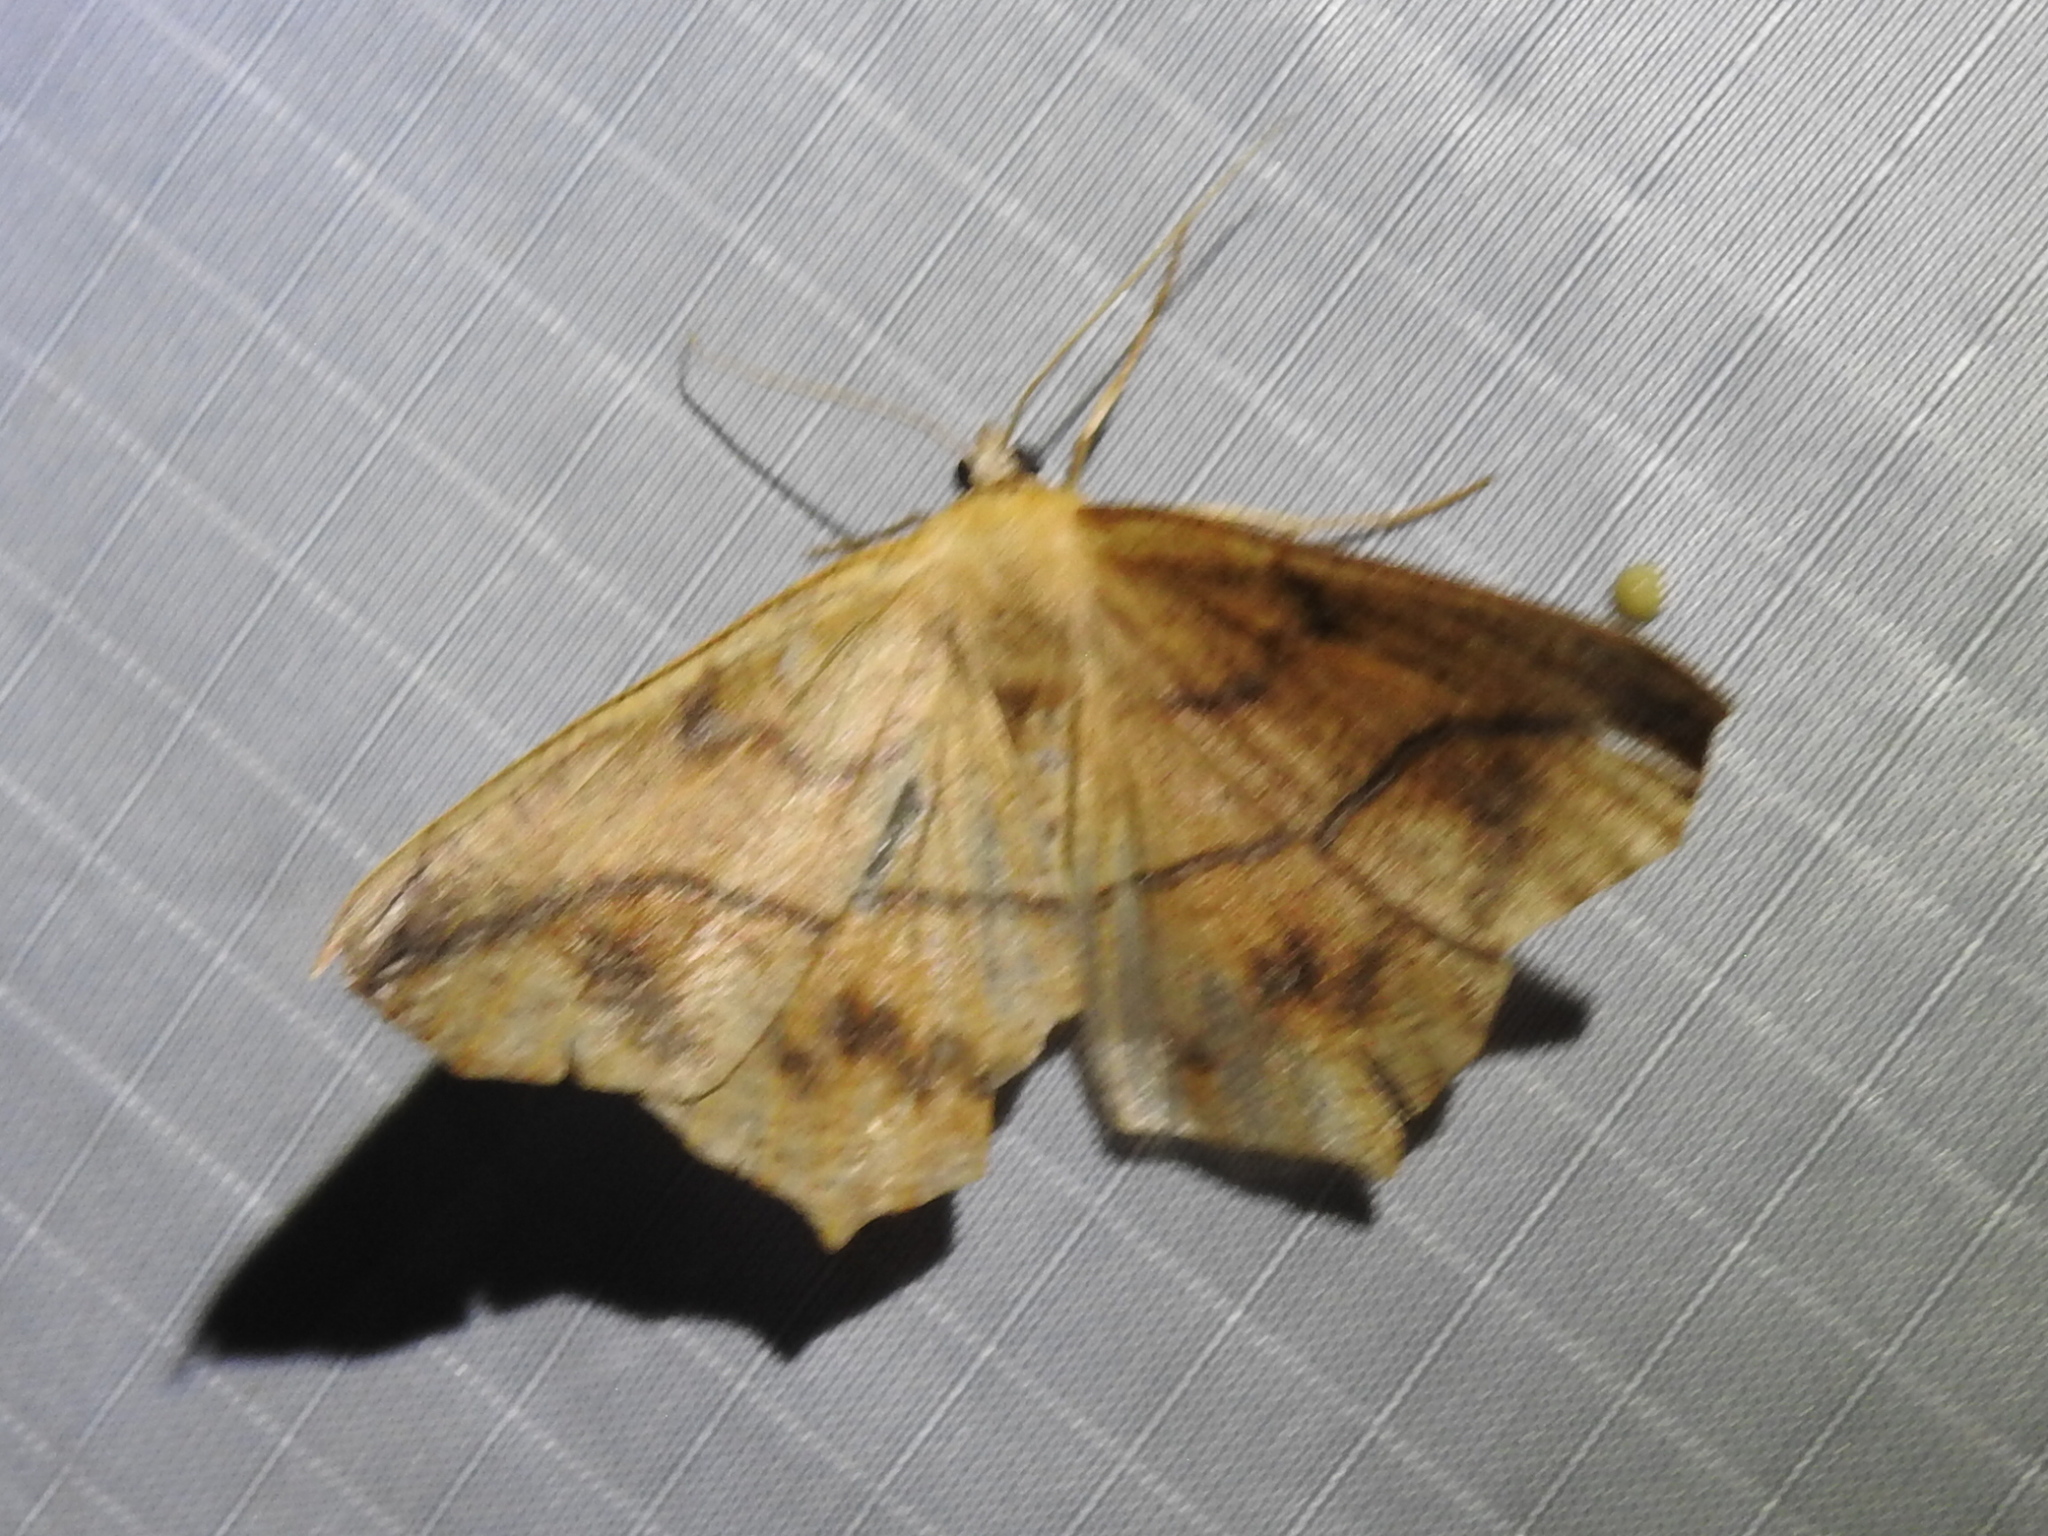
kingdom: Animalia
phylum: Arthropoda
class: Insecta
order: Lepidoptera
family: Geometridae
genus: Prochoerodes
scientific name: Prochoerodes lineola
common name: Large maple spanworm
